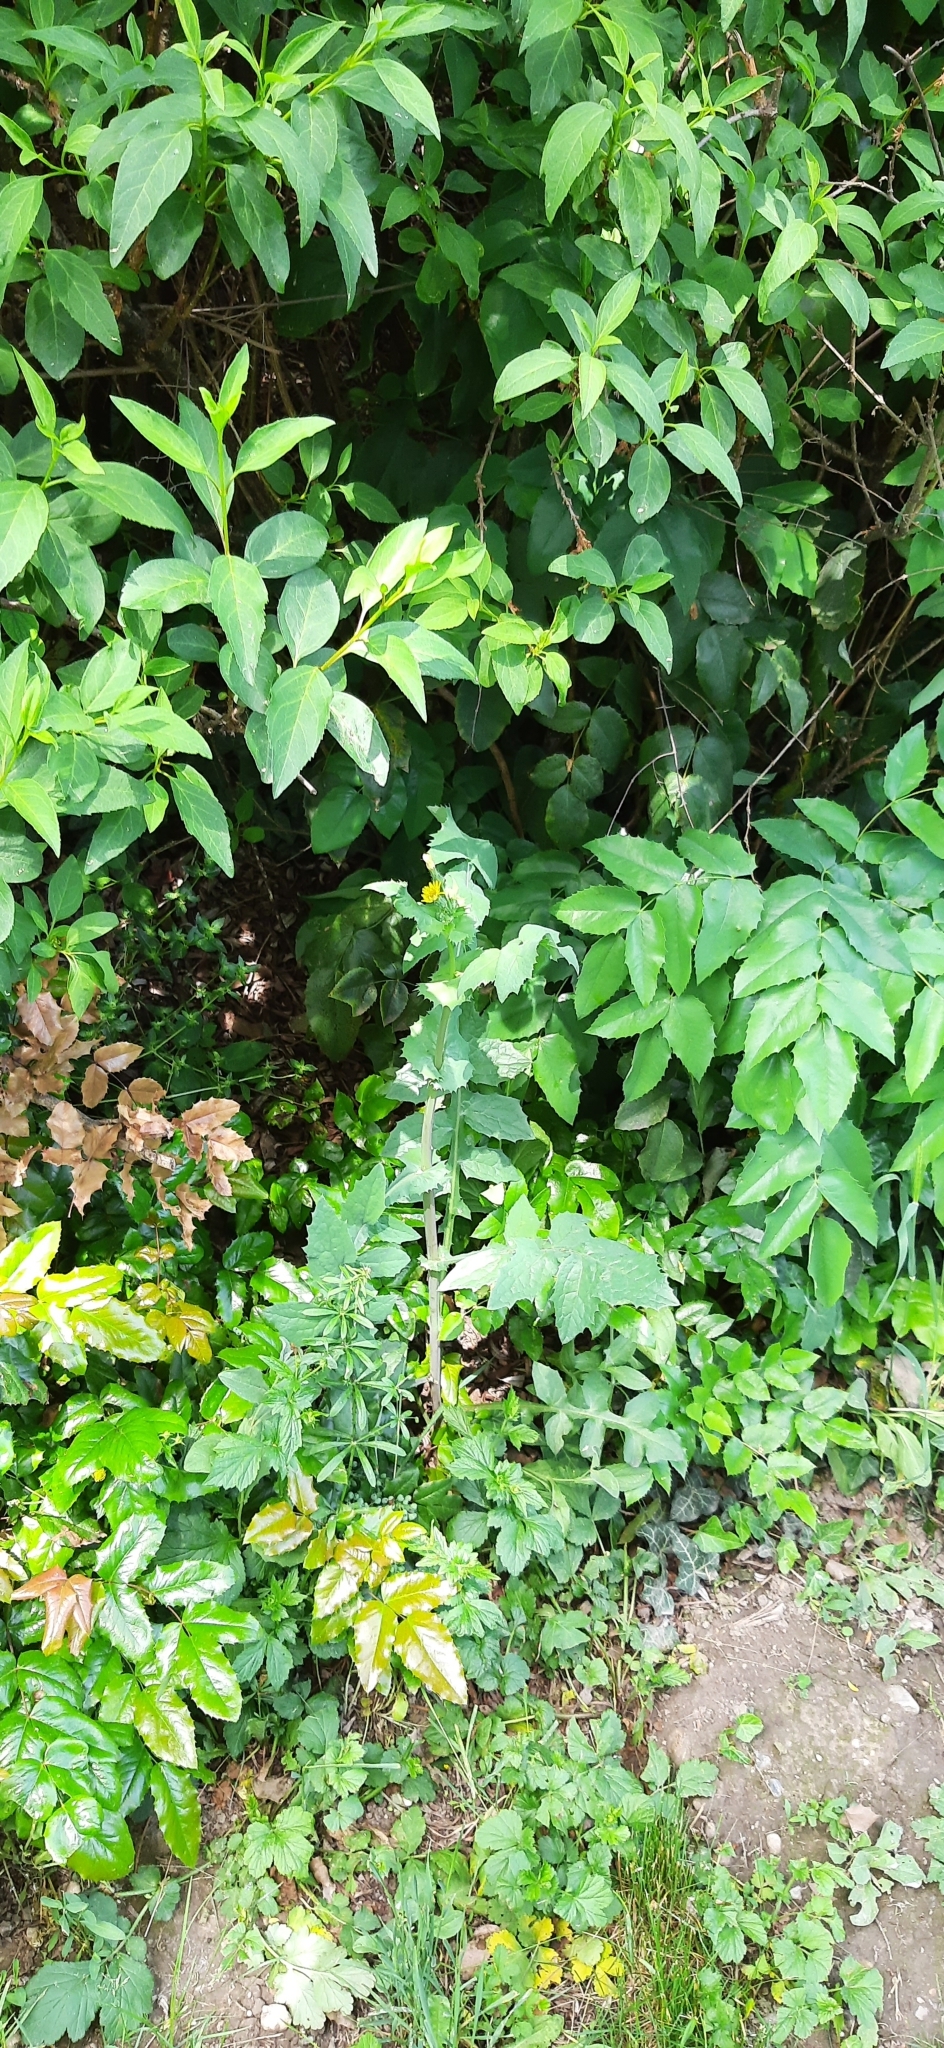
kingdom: Plantae
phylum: Tracheophyta
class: Magnoliopsida
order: Asterales
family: Asteraceae
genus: Sonchus
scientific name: Sonchus oleraceus
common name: Common sowthistle
